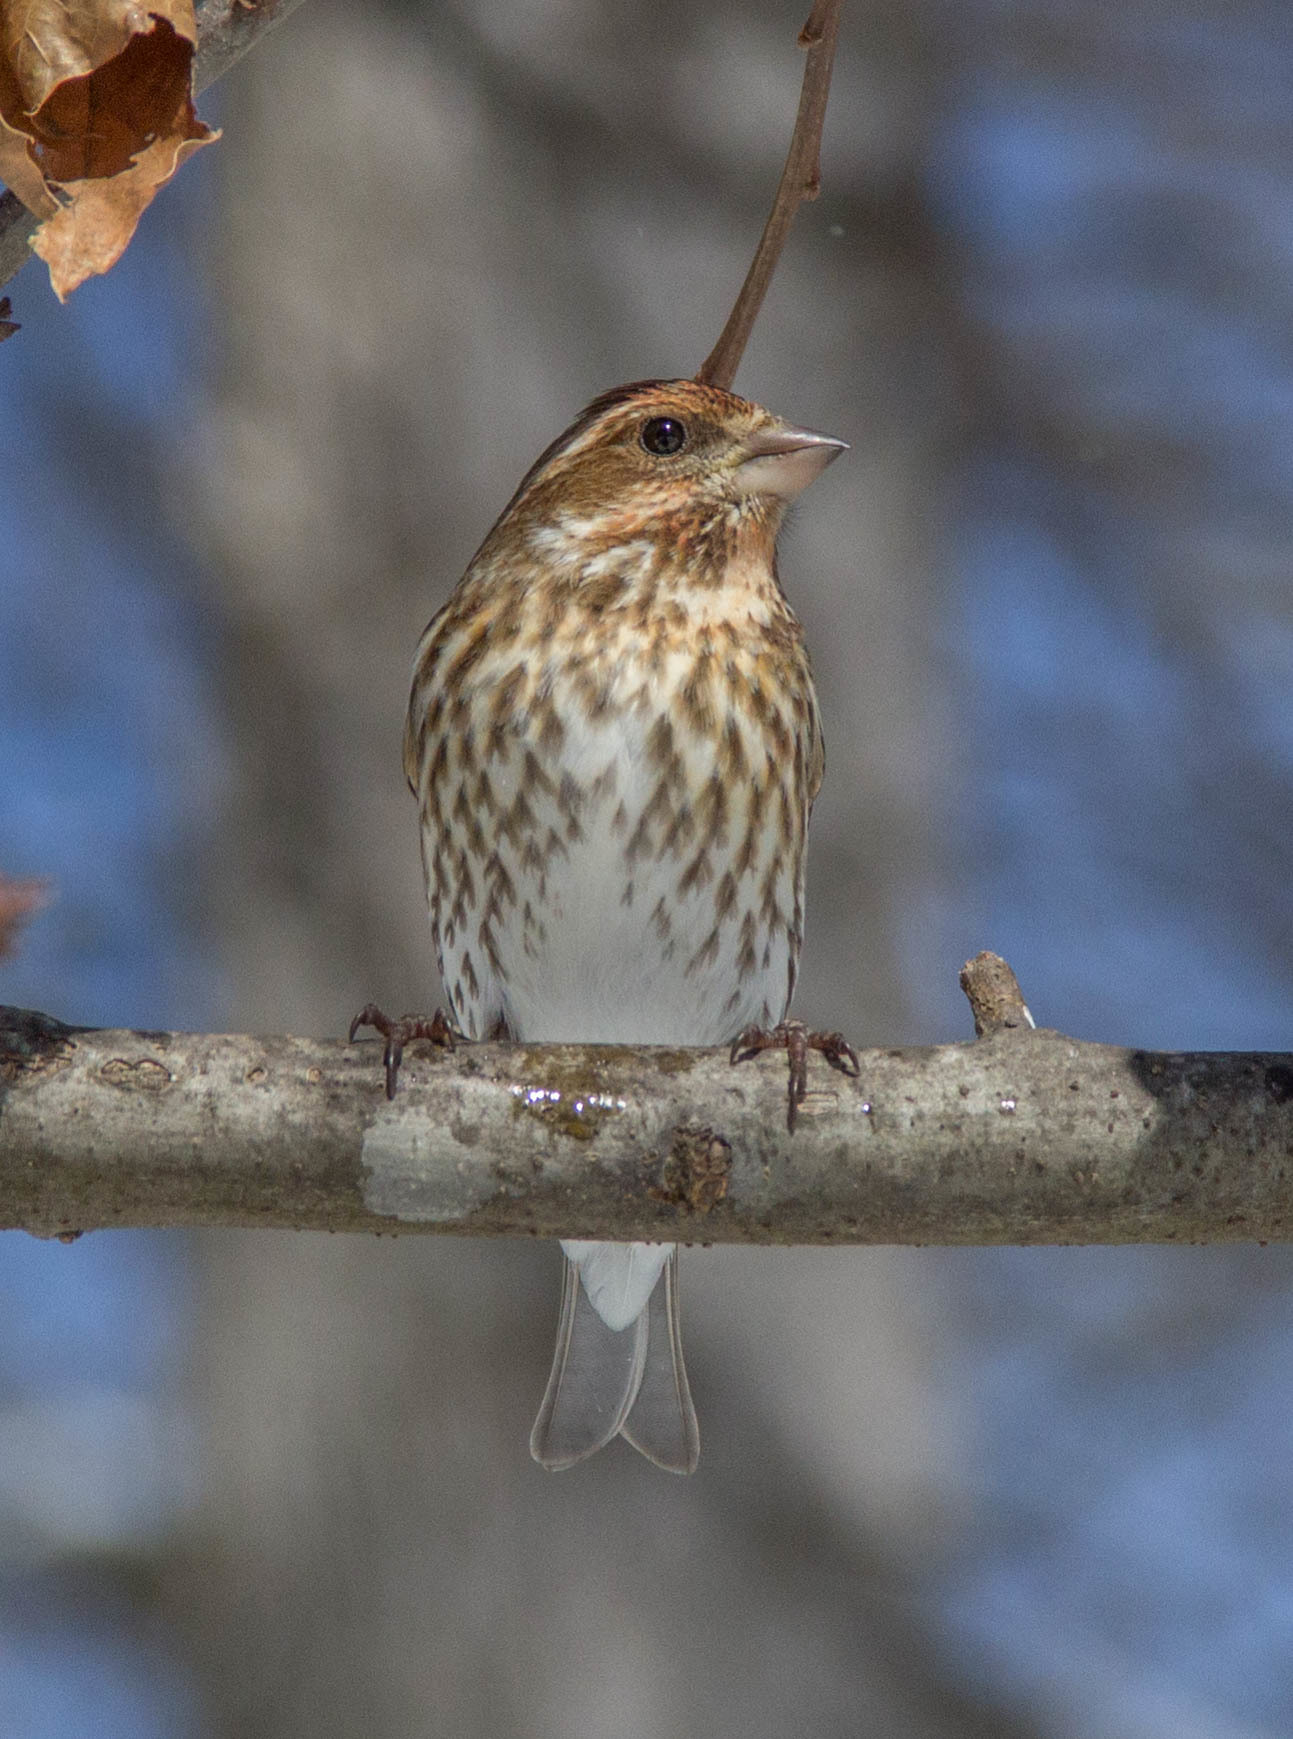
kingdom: Animalia
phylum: Chordata
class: Aves
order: Passeriformes
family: Fringillidae
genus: Haemorhous
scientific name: Haemorhous purpureus
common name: Purple finch
